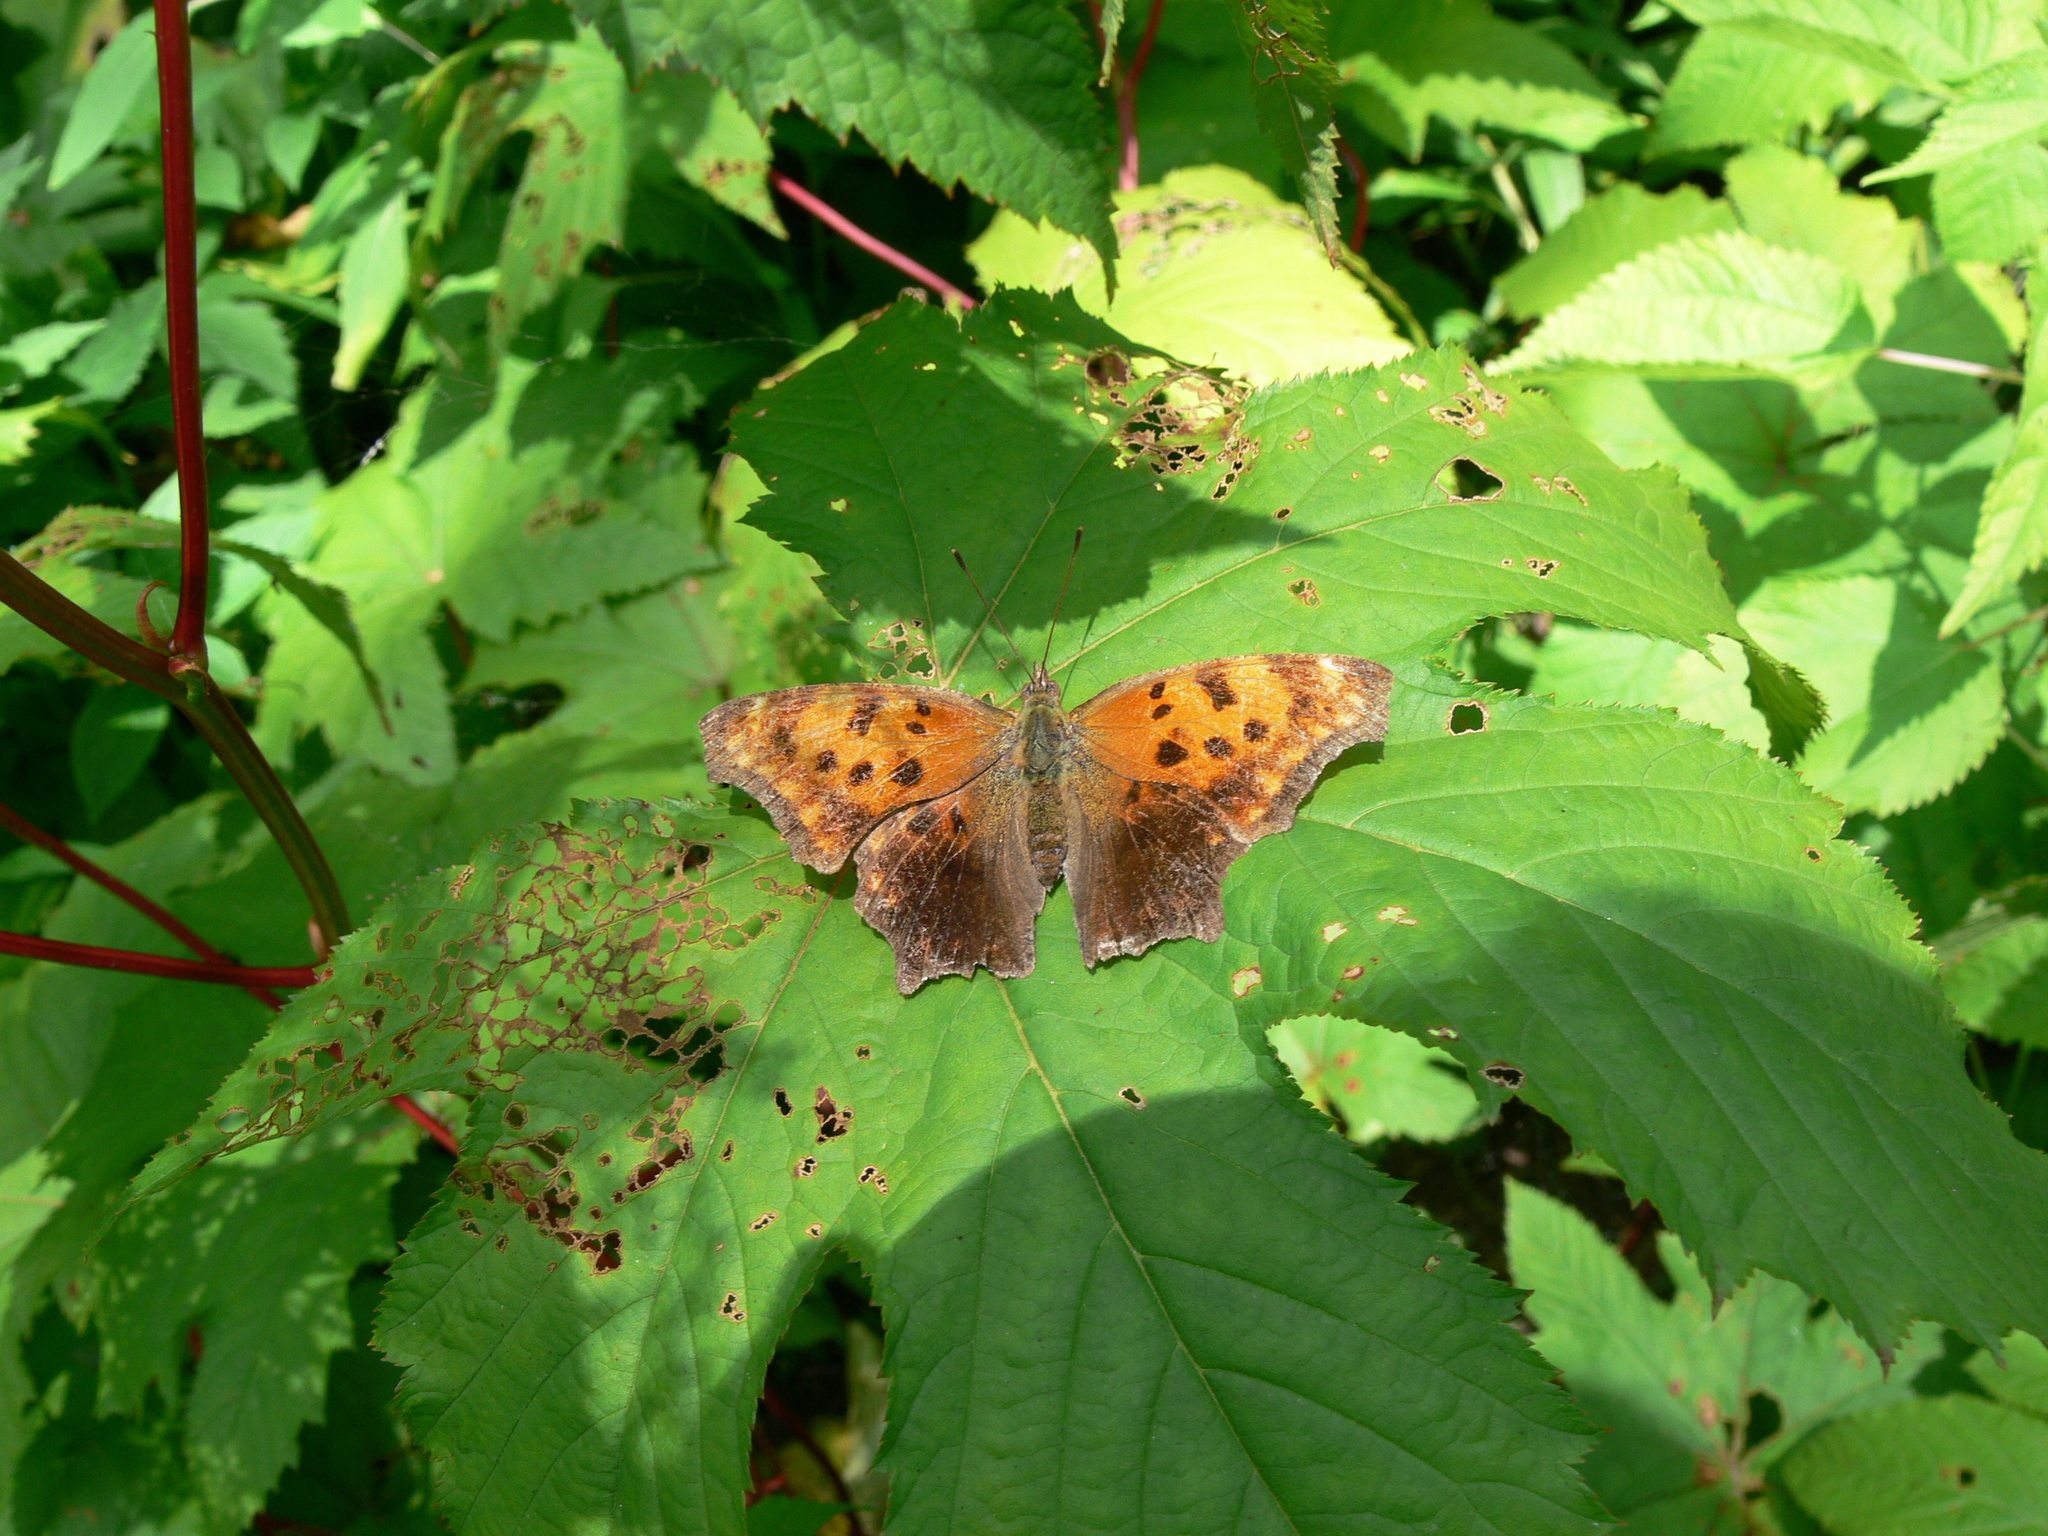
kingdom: Animalia
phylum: Arthropoda
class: Insecta
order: Lepidoptera
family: Nymphalidae
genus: Polygonia
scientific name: Polygonia comma
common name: Eastern comma
